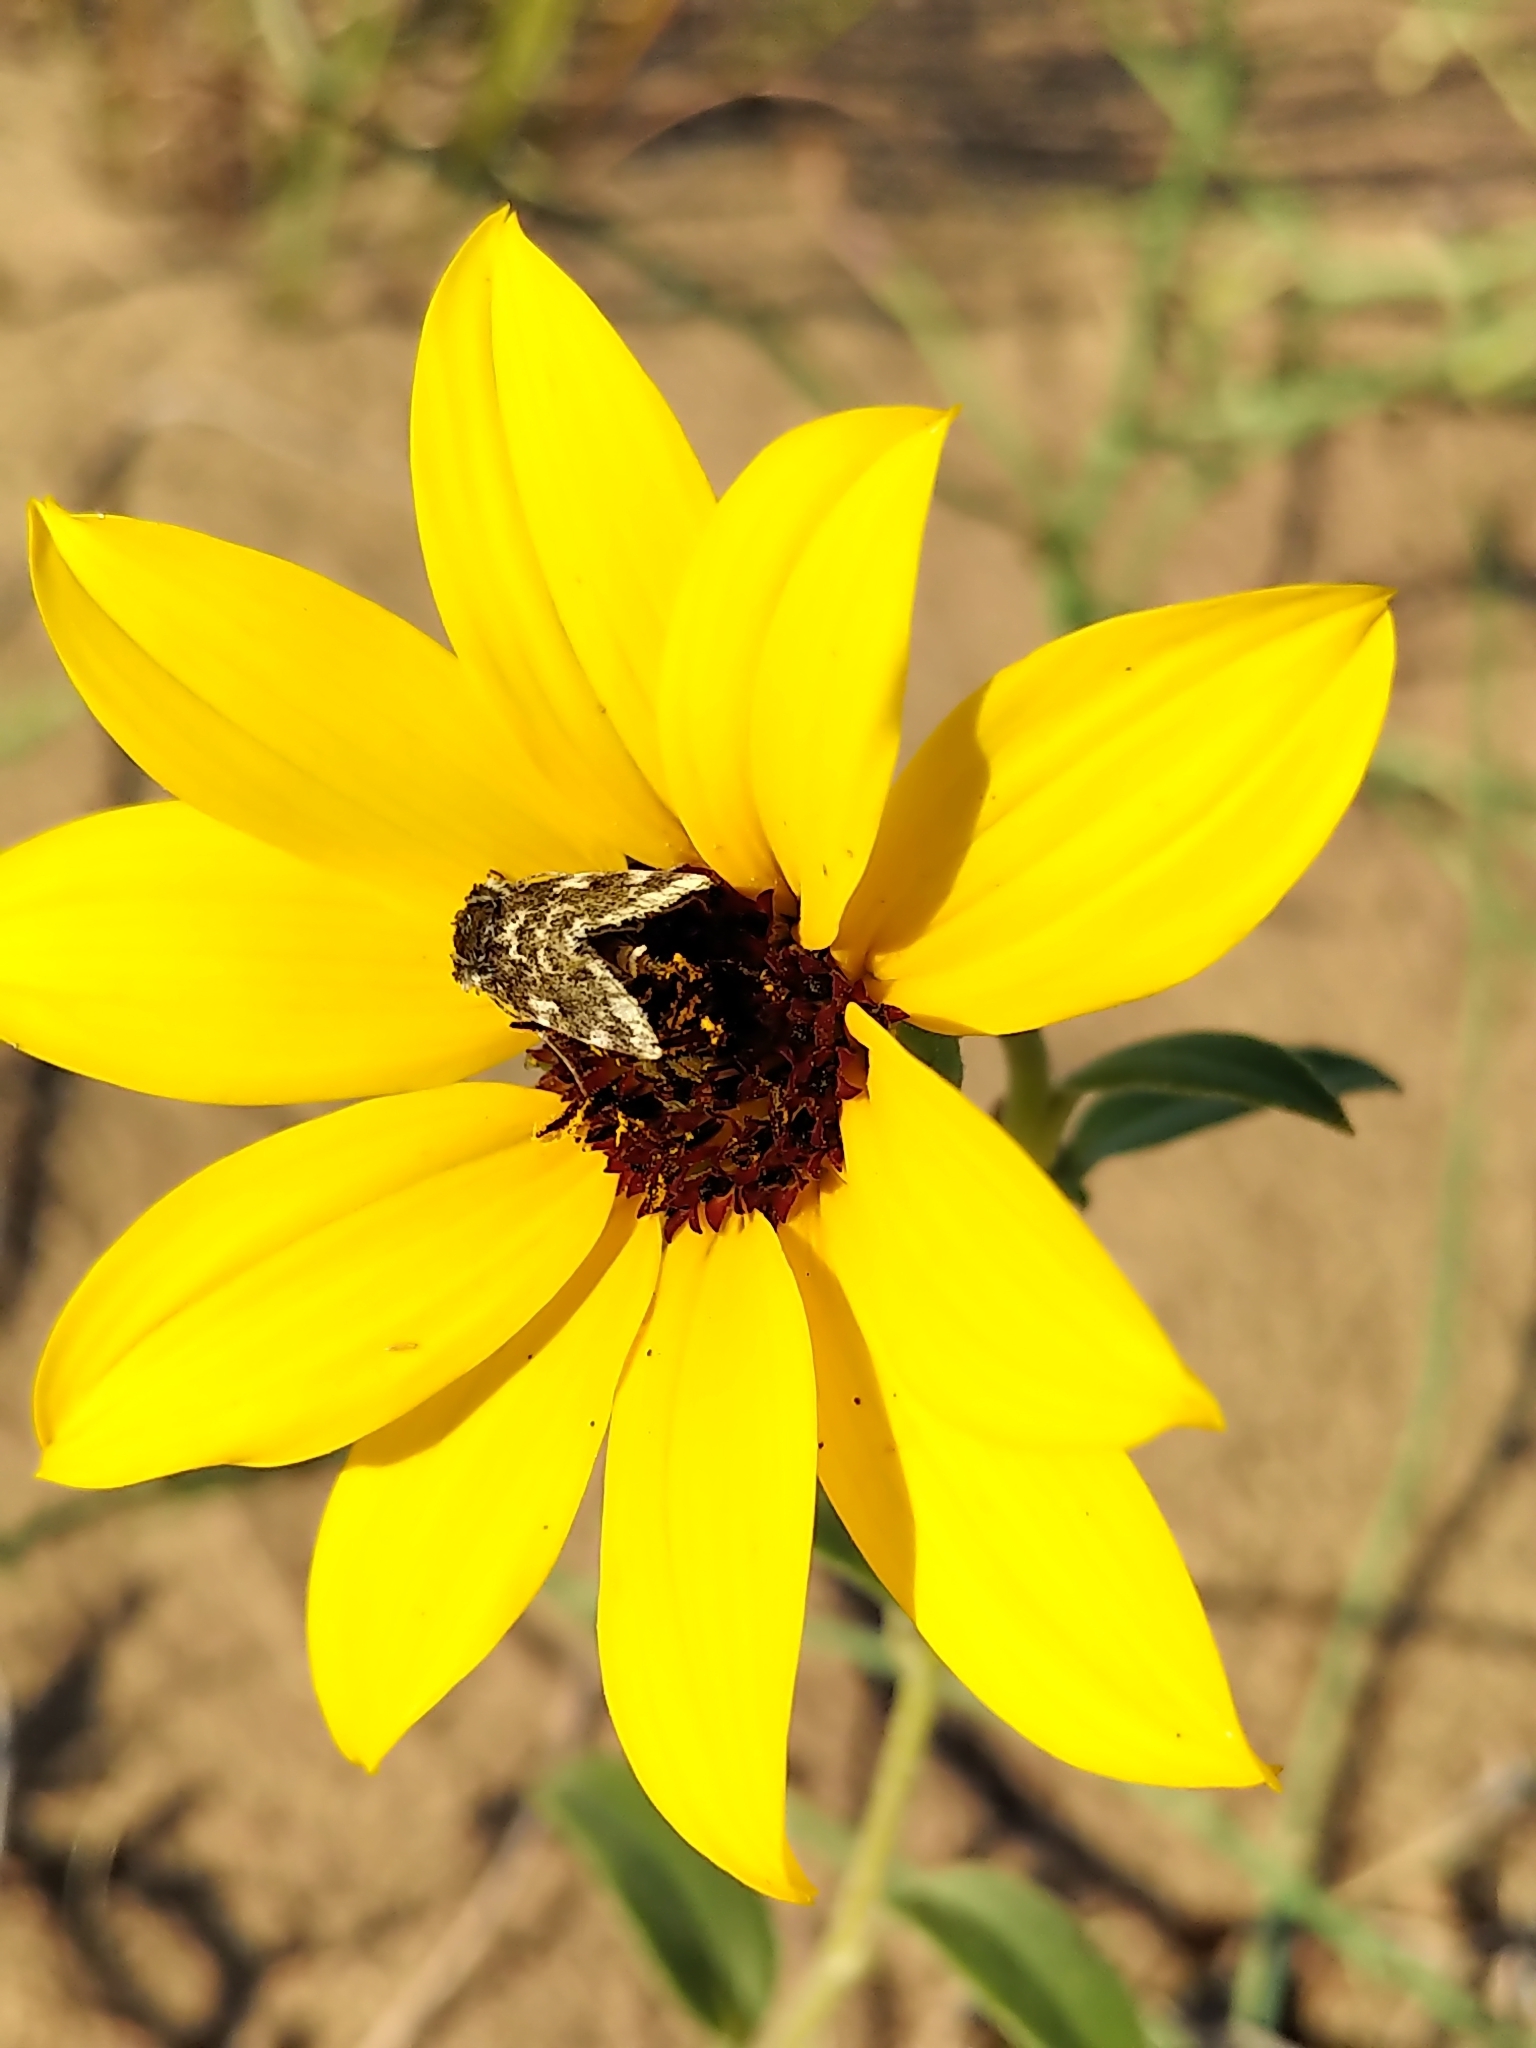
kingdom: Animalia
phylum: Arthropoda
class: Insecta
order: Lepidoptera
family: Noctuidae
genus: Schinia
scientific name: Schinia avemensis
